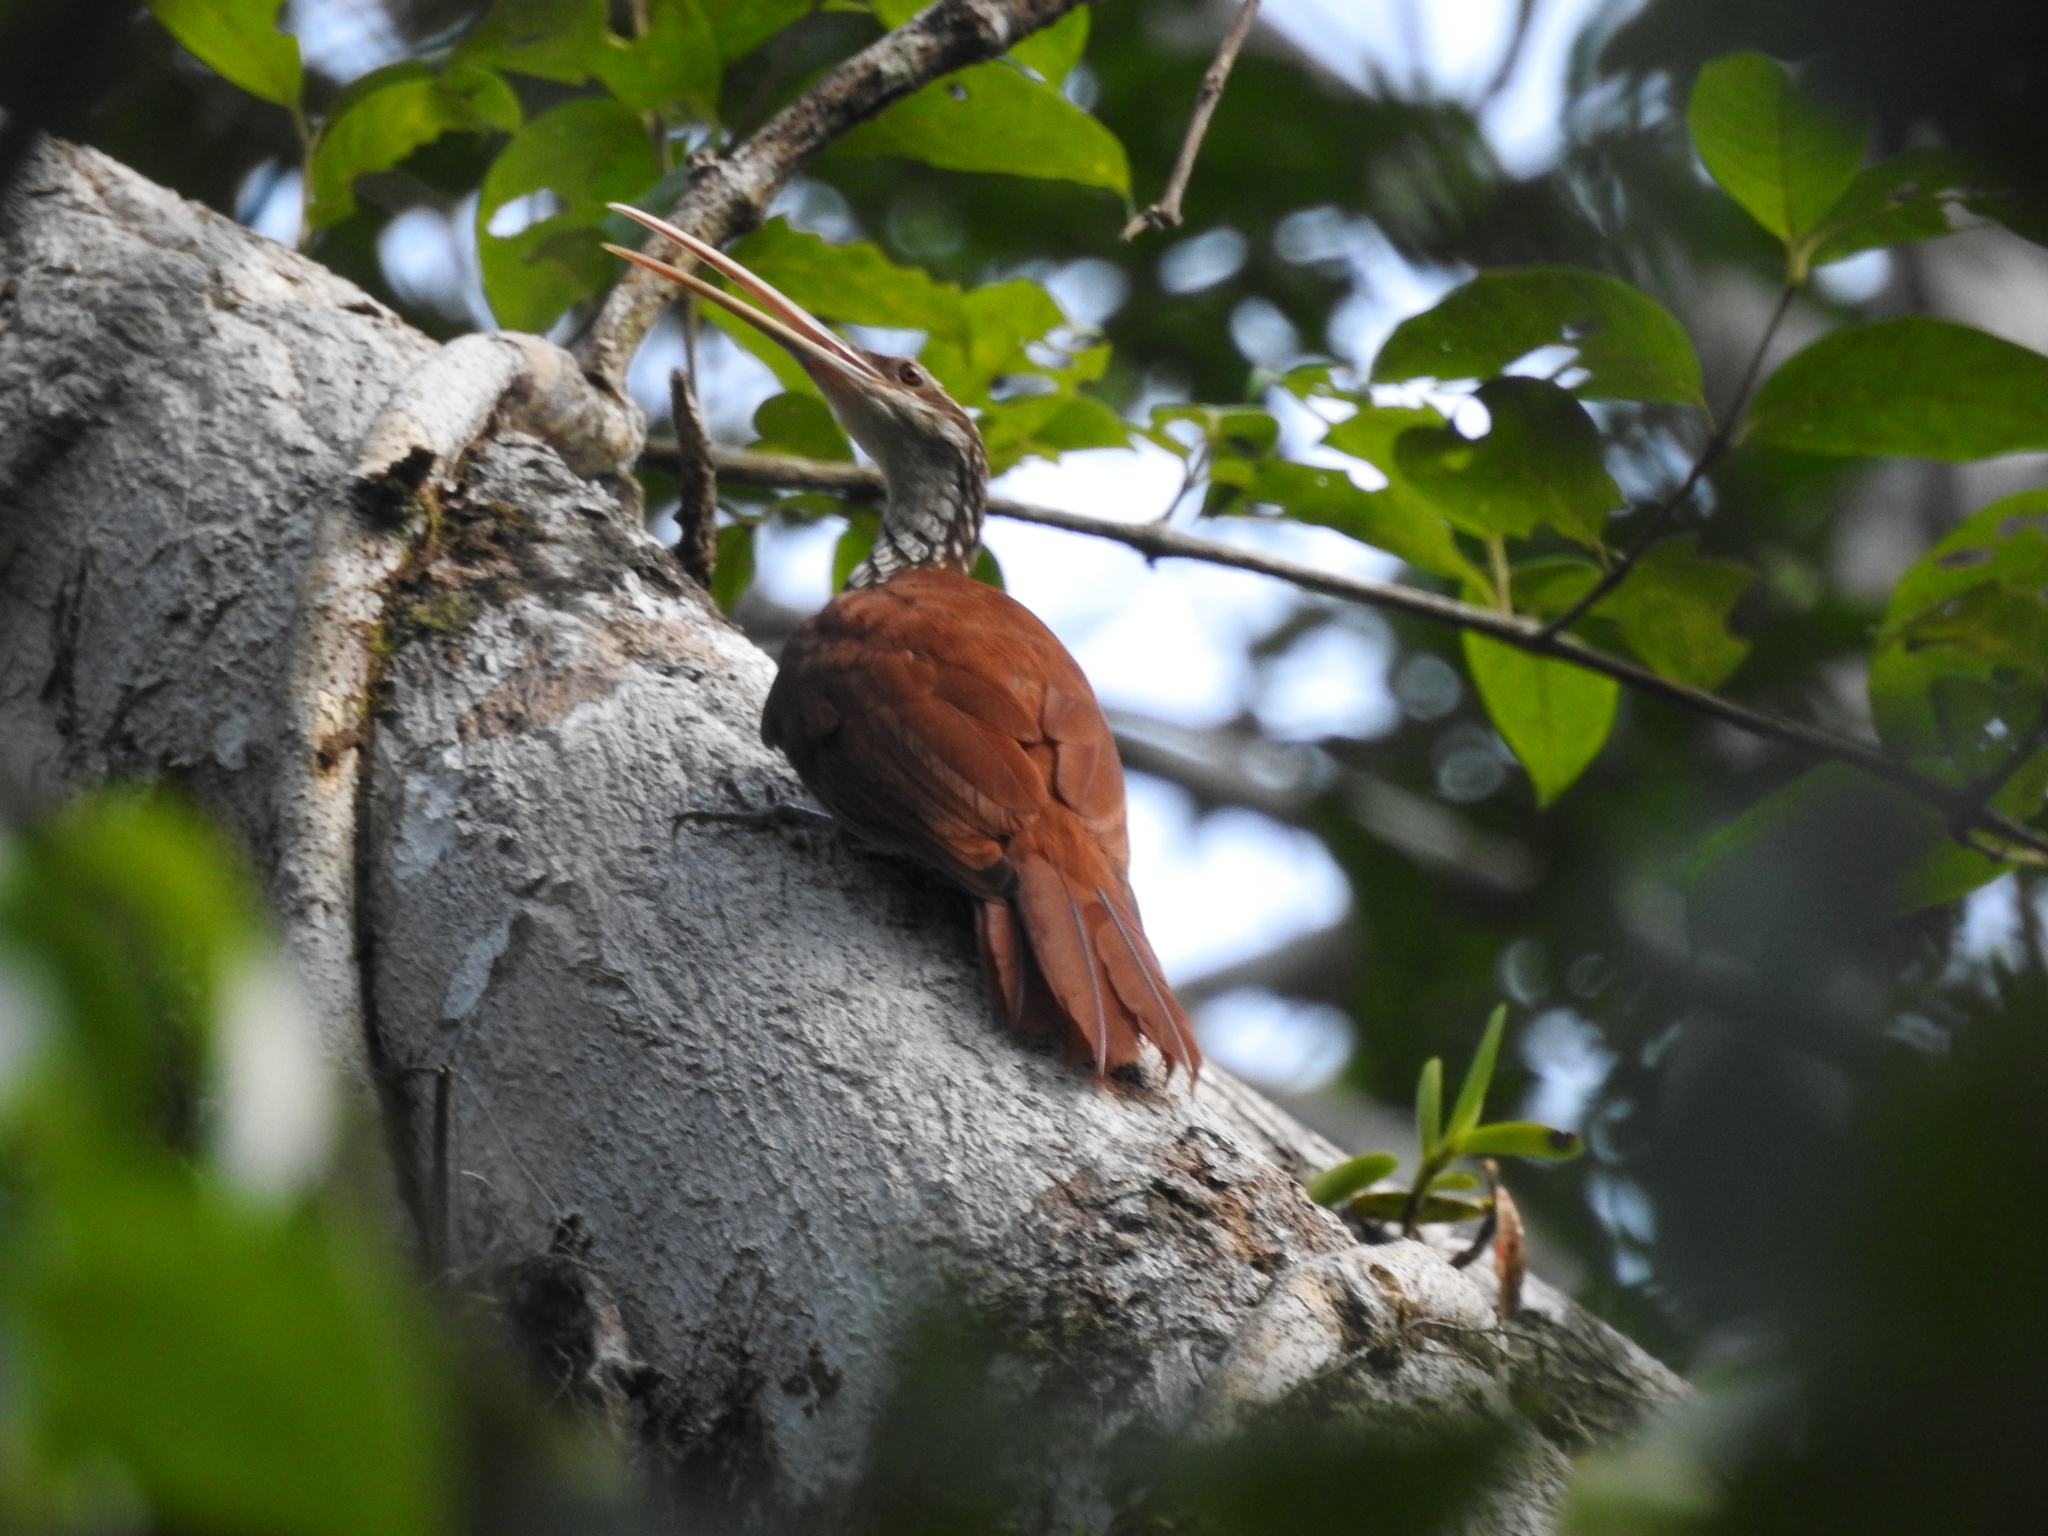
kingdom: Animalia
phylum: Chordata
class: Aves
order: Passeriformes
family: Furnariidae
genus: Nasica
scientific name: Nasica longirostris
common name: Long-billed woodcreeper
